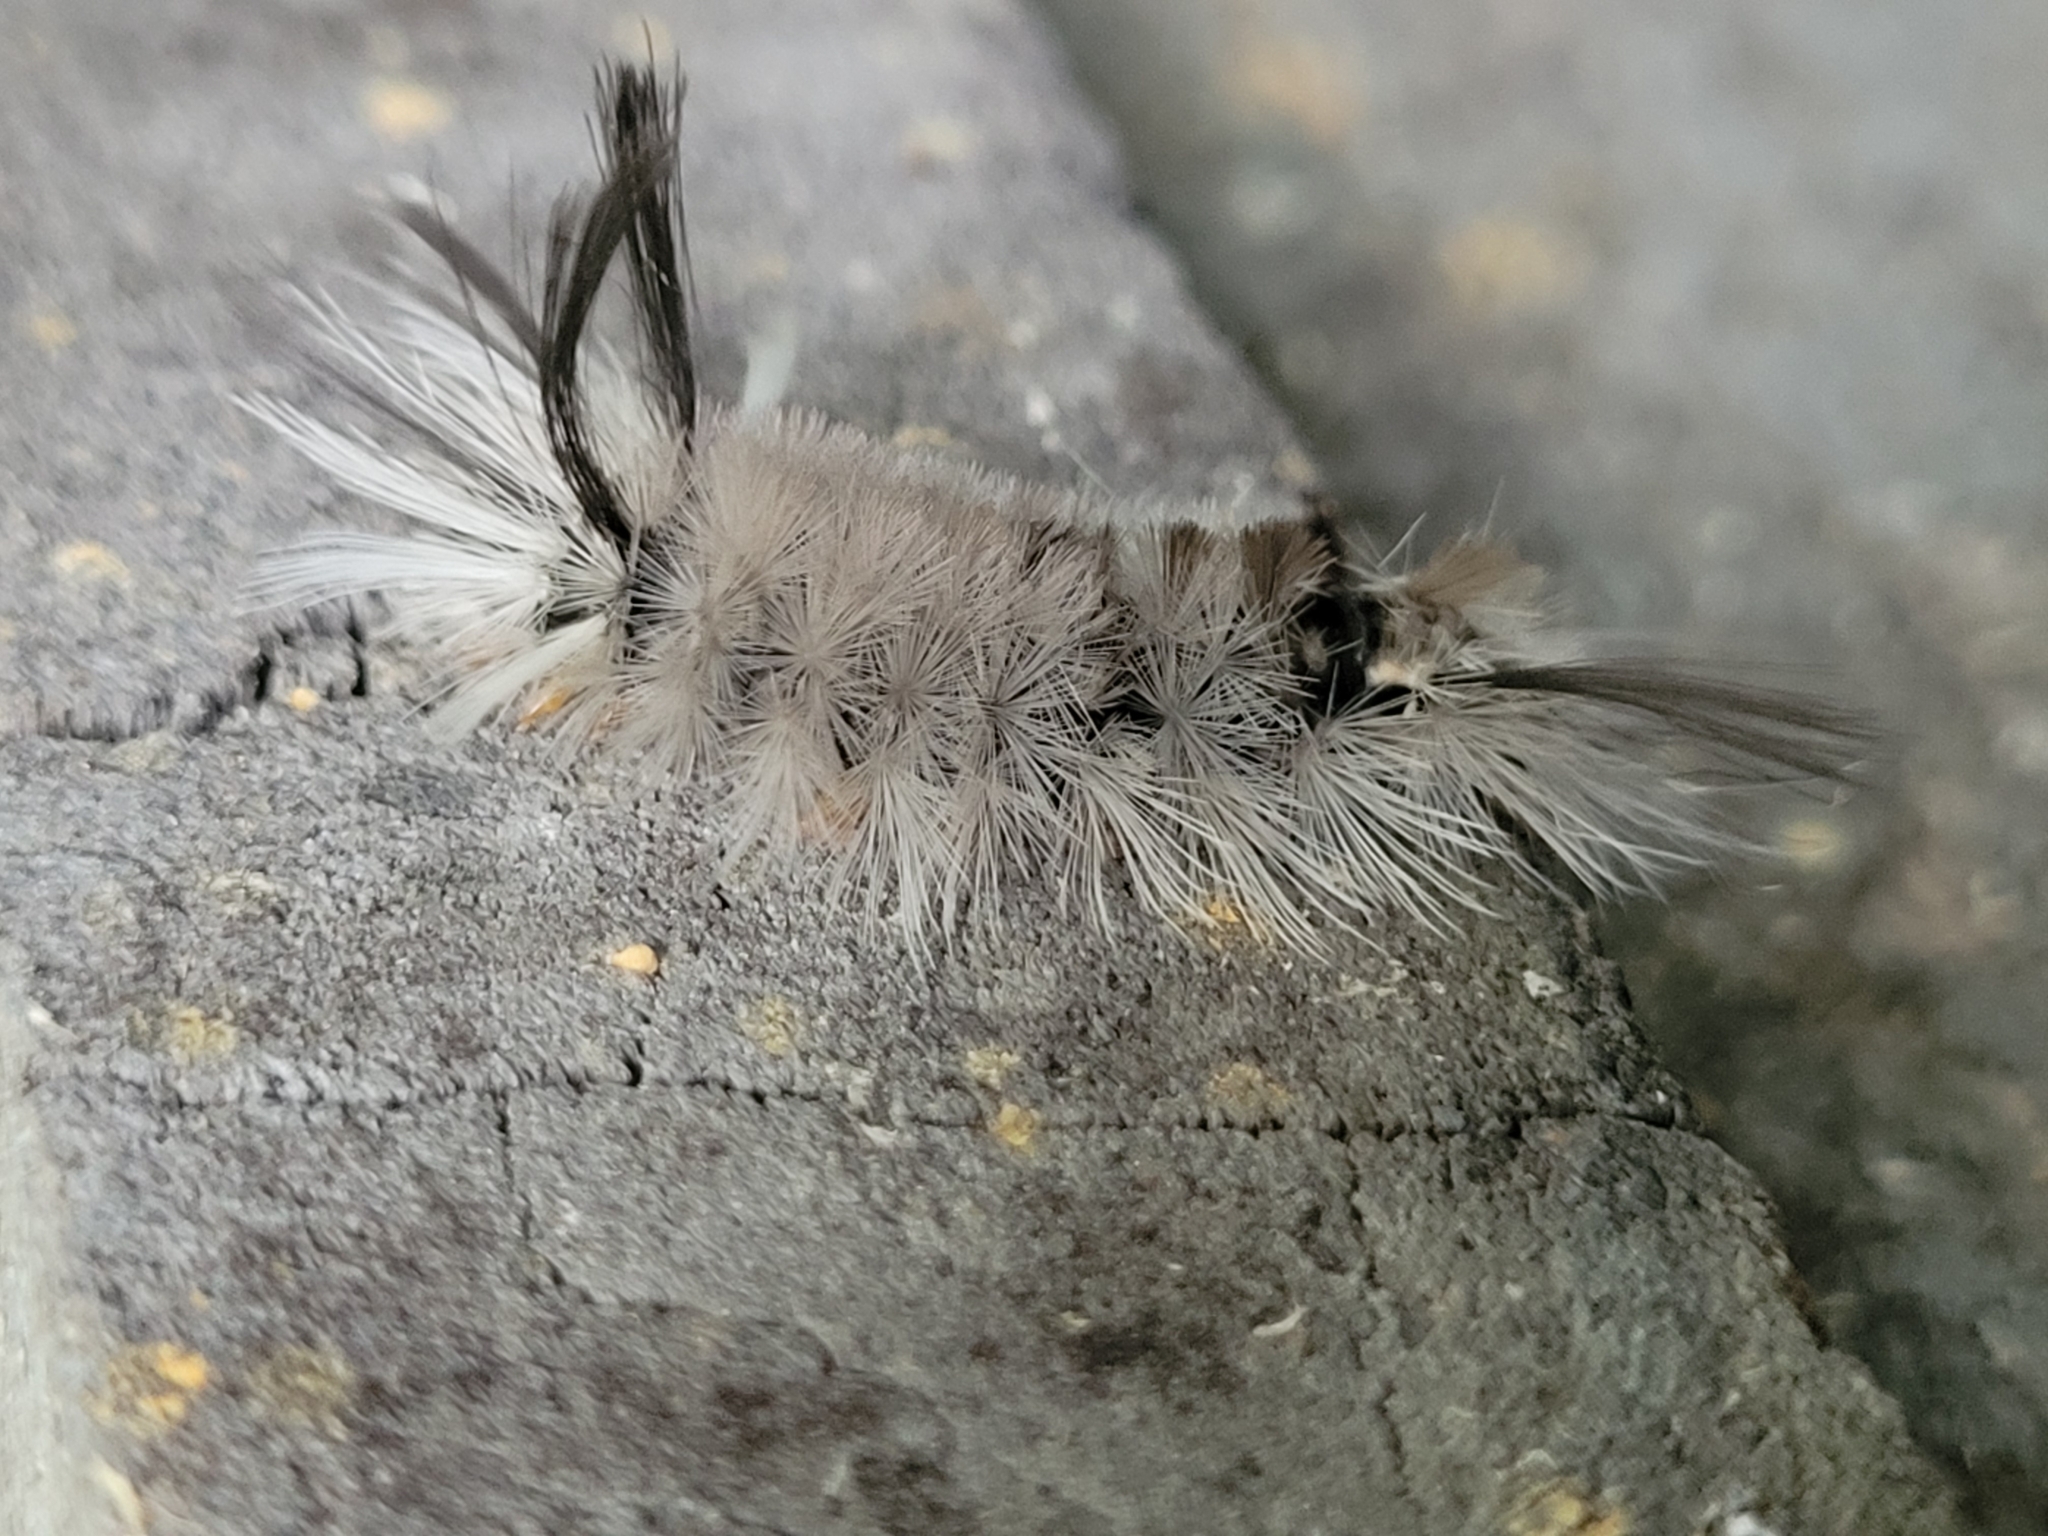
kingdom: Animalia
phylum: Arthropoda
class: Insecta
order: Lepidoptera
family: Erebidae
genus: Halysidota
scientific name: Halysidota tessellaris
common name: Banded tussock moth
